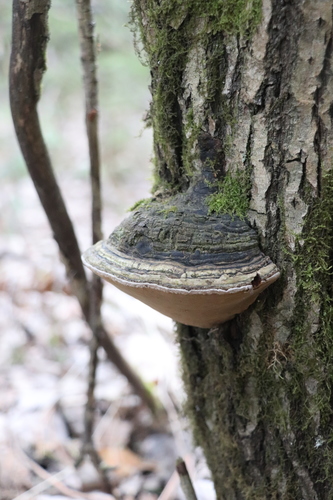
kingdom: Fungi
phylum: Basidiomycota
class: Agaricomycetes
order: Hymenochaetales
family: Hymenochaetaceae
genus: Phellinus
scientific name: Phellinus igniarius
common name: Willow bracket
